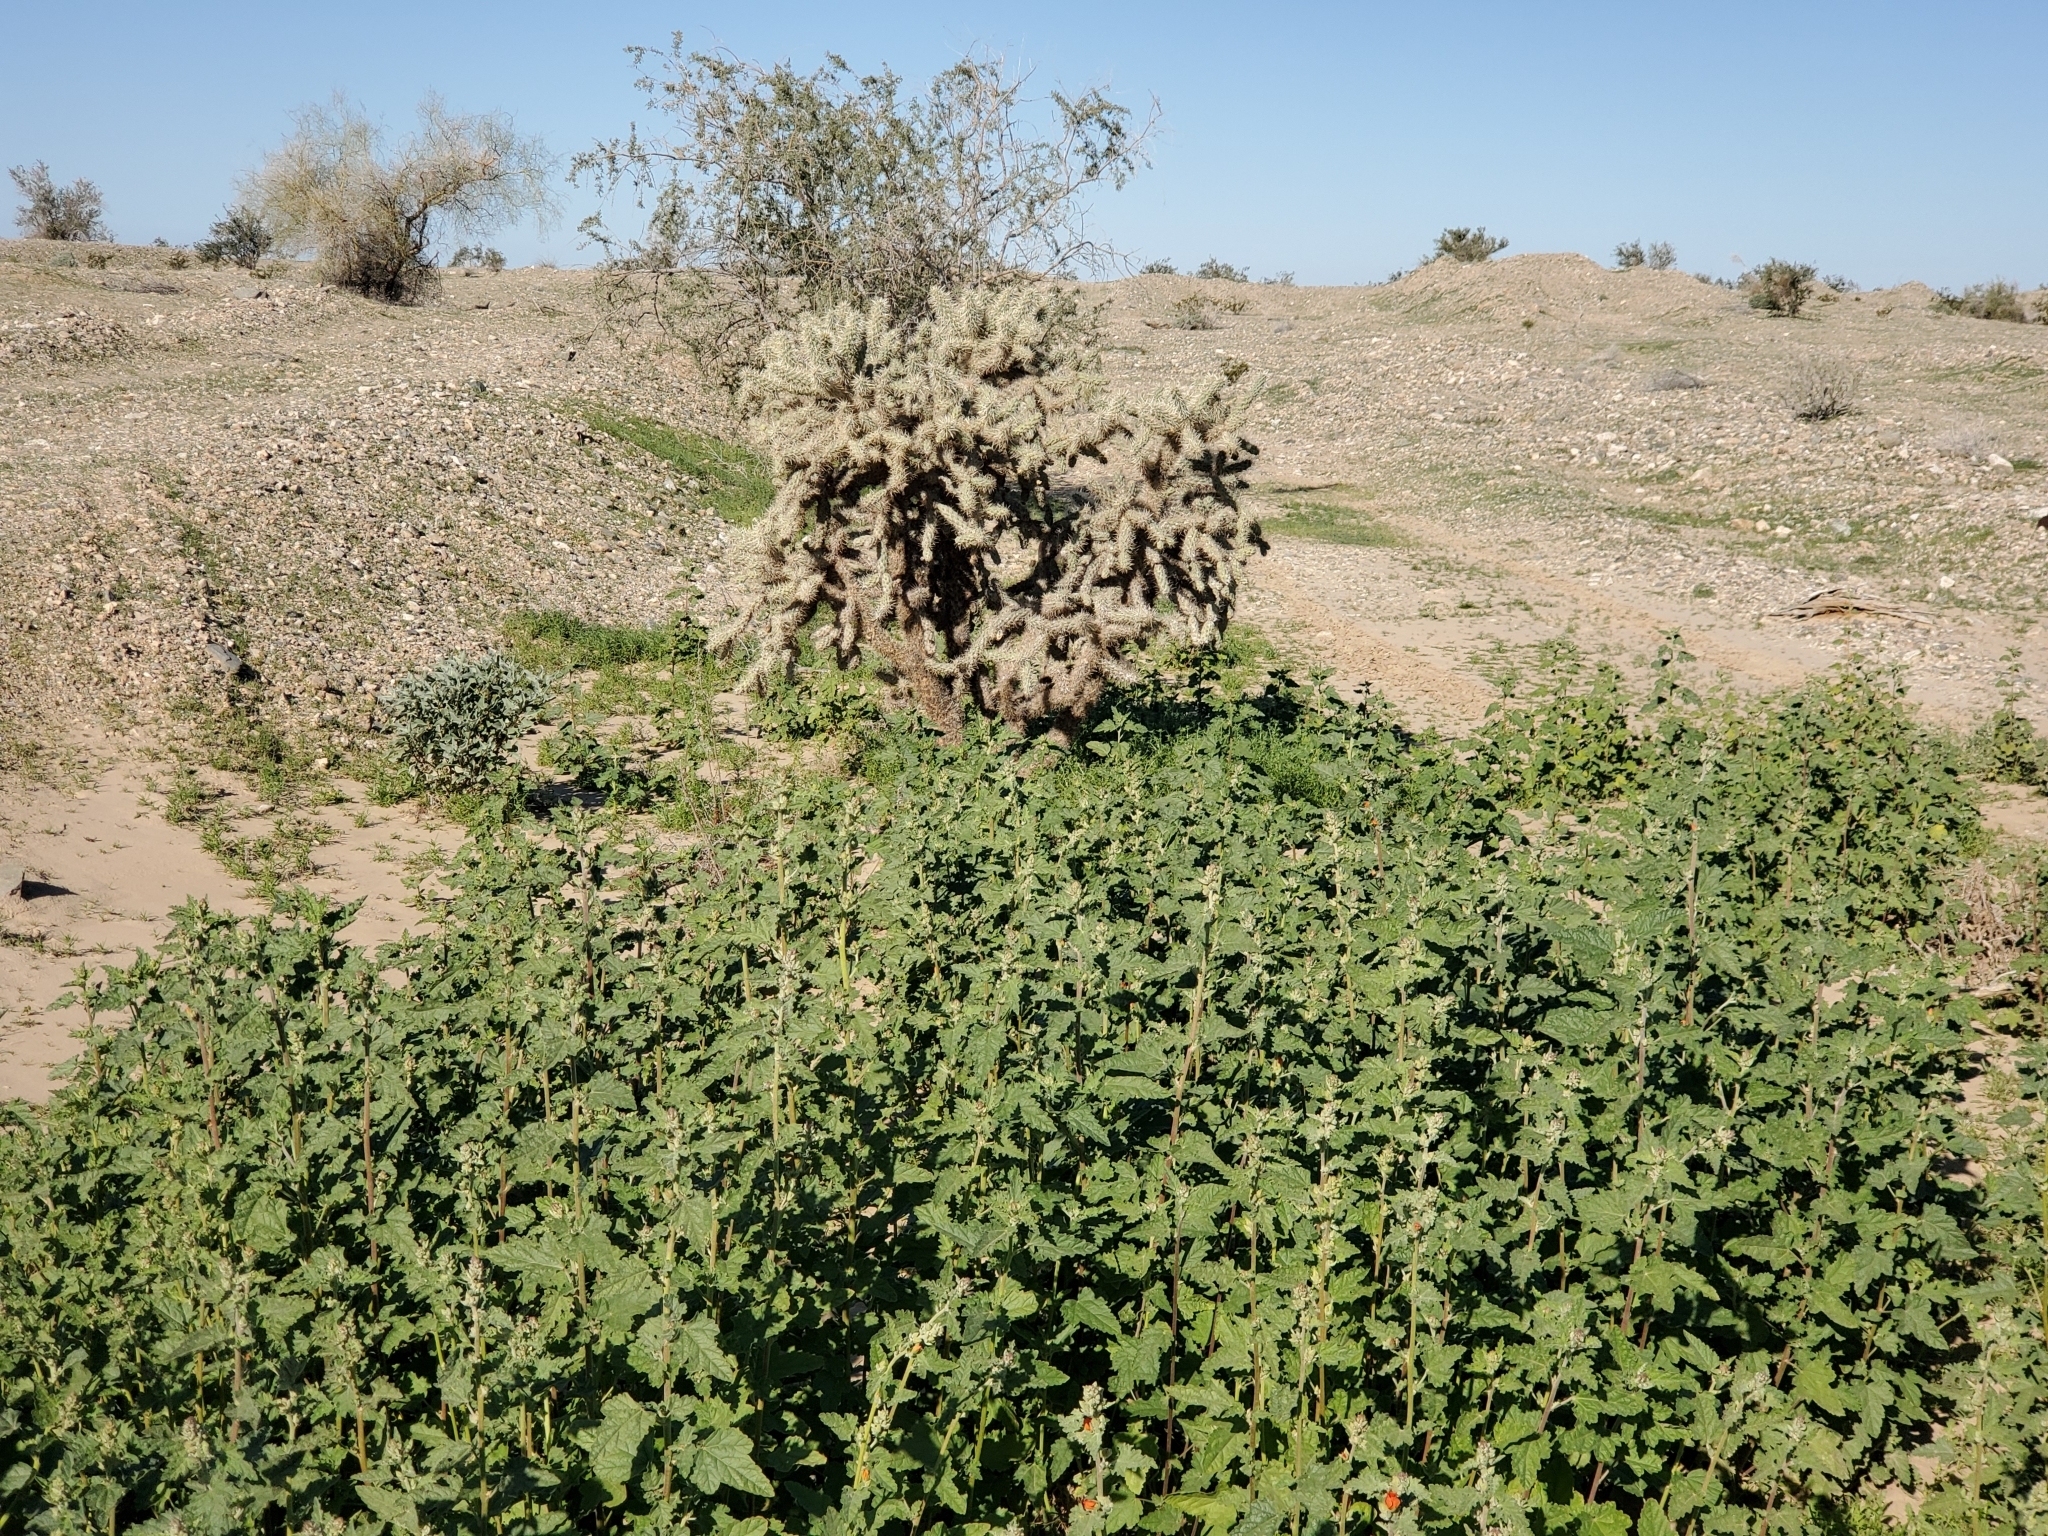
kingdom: Plantae
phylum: Tracheophyta
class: Magnoliopsida
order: Malvales
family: Malvaceae
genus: Sphaeralcea
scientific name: Sphaeralcea ambigua
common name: Apricot globe-mallow
